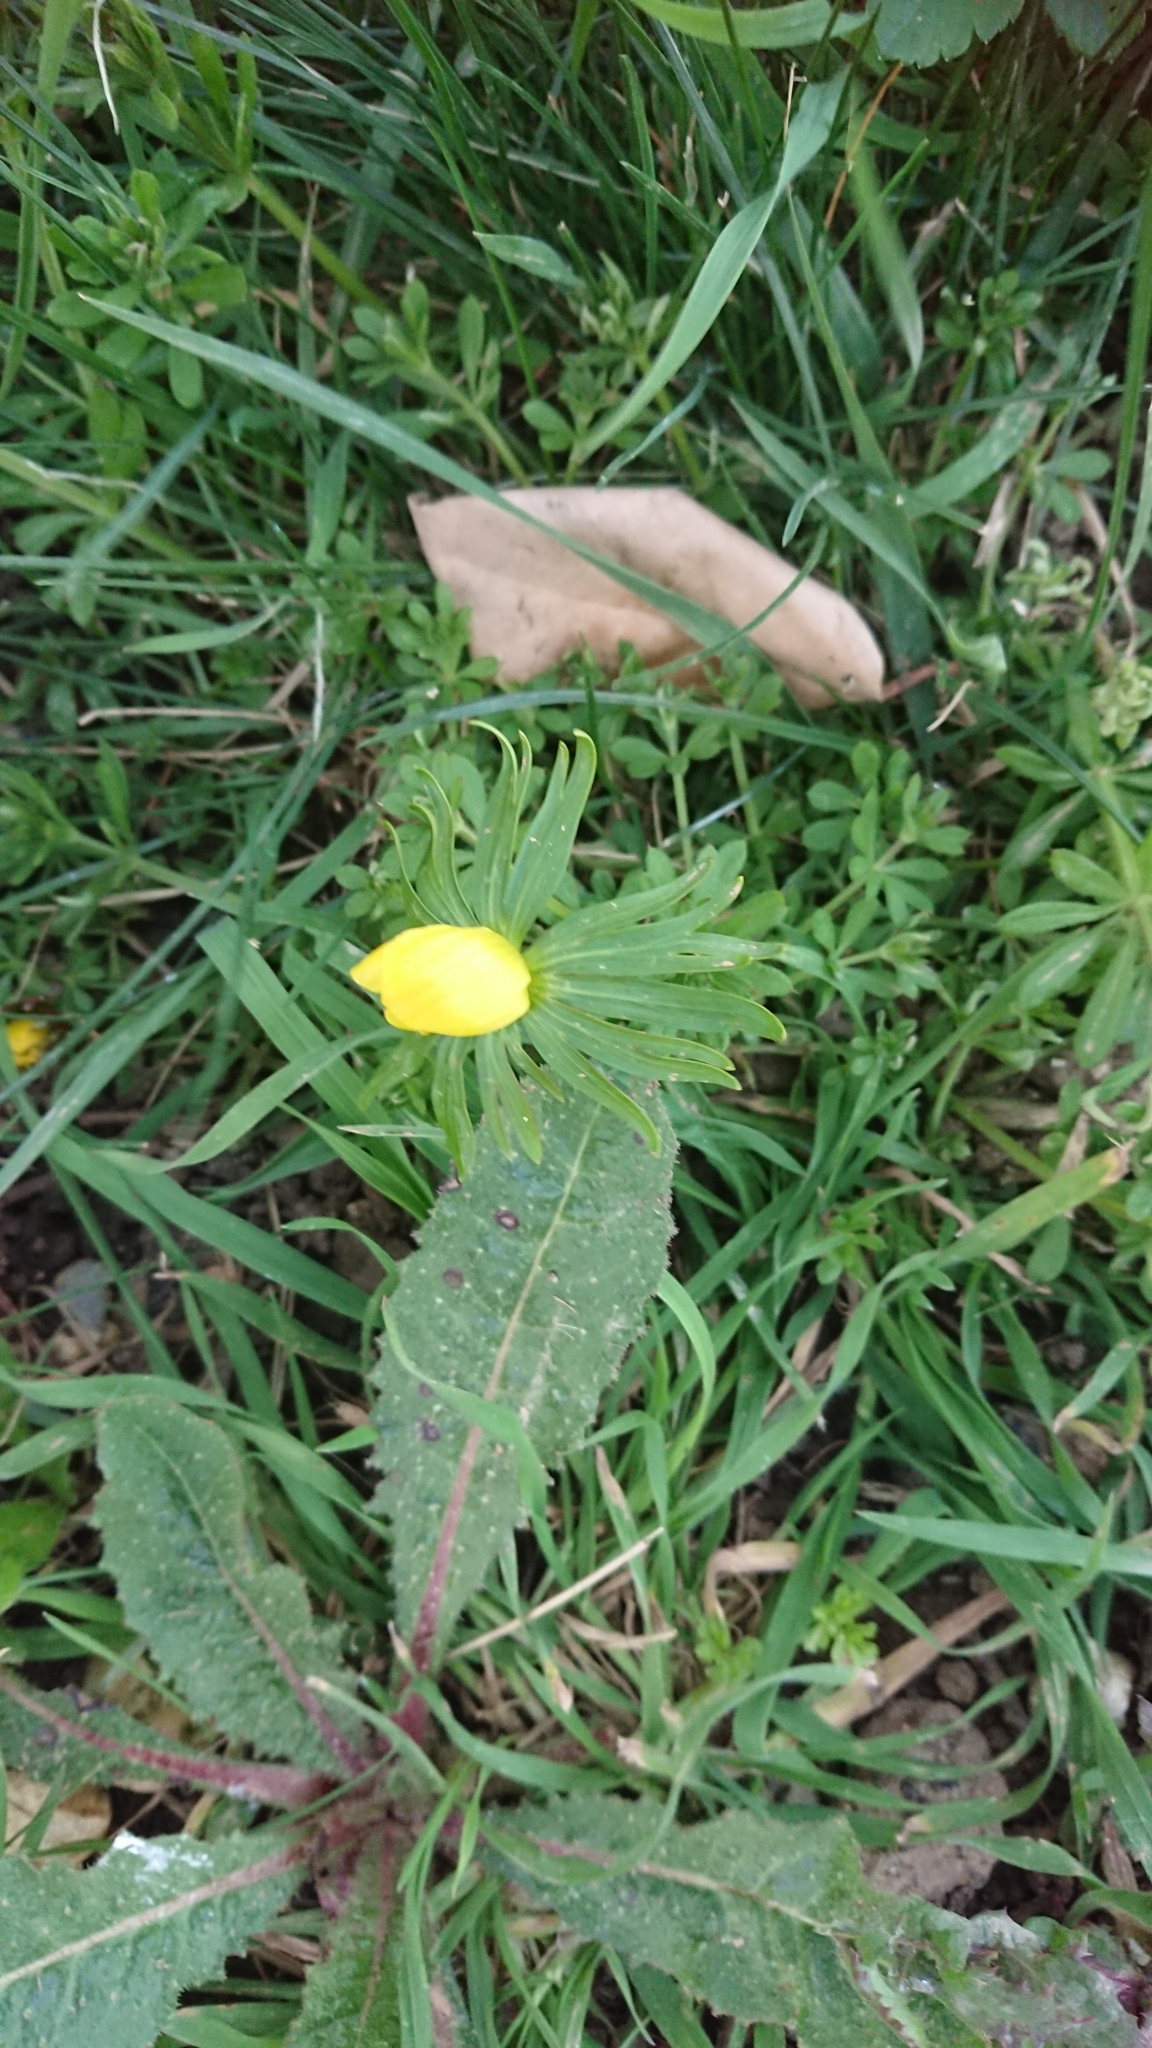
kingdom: Plantae
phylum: Tracheophyta
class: Magnoliopsida
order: Ranunculales
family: Ranunculaceae
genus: Eranthis
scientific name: Eranthis hyemalis
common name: Winter aconite
